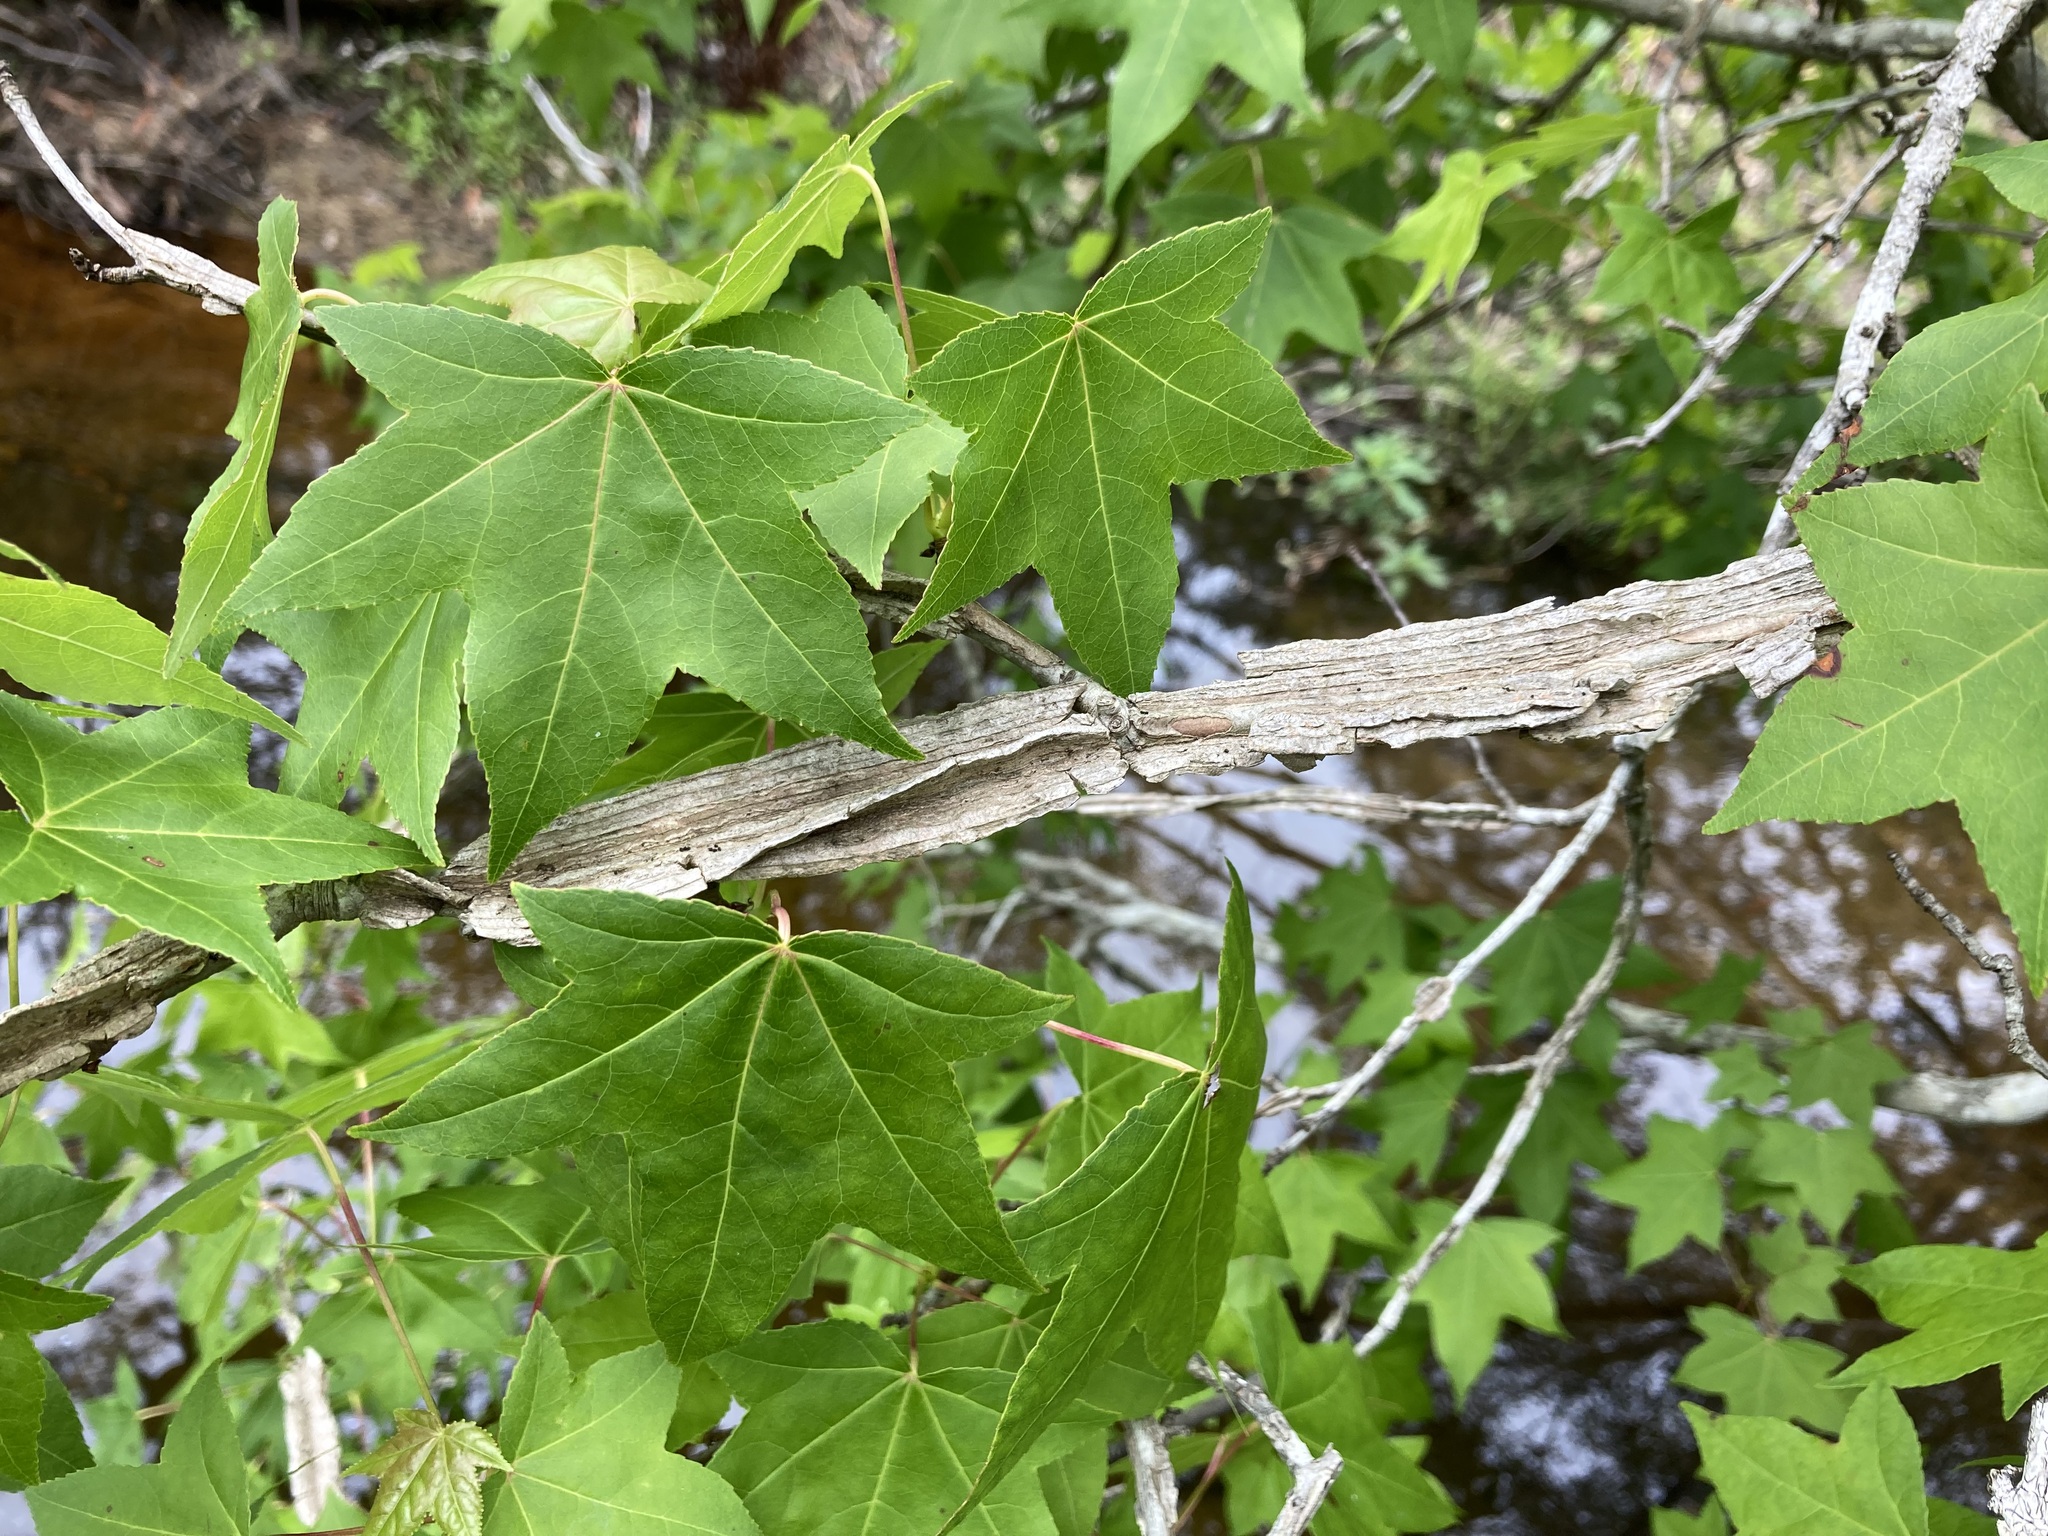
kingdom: Plantae
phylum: Tracheophyta
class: Magnoliopsida
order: Saxifragales
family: Altingiaceae
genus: Liquidambar
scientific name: Liquidambar styraciflua
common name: Sweet gum
